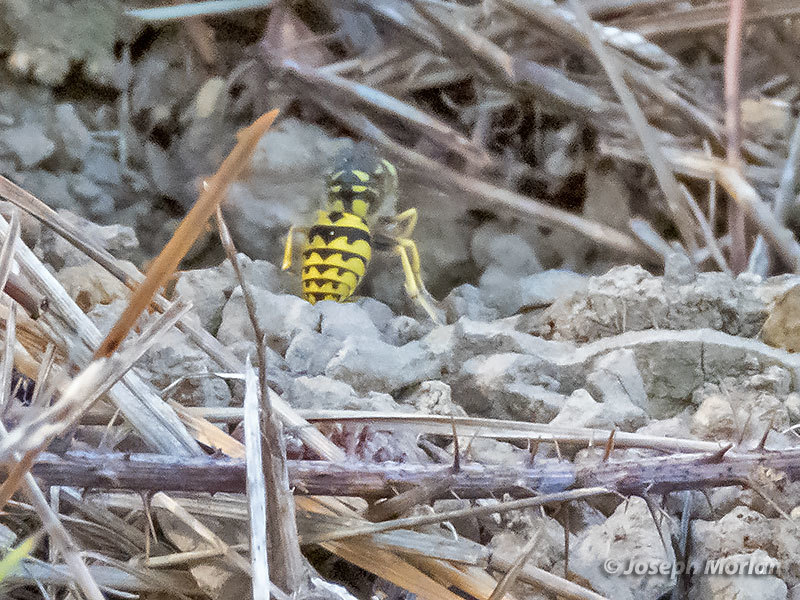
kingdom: Animalia
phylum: Arthropoda
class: Insecta
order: Hymenoptera
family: Vespidae
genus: Vespula
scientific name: Vespula pensylvanica
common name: Western yellowjacket
